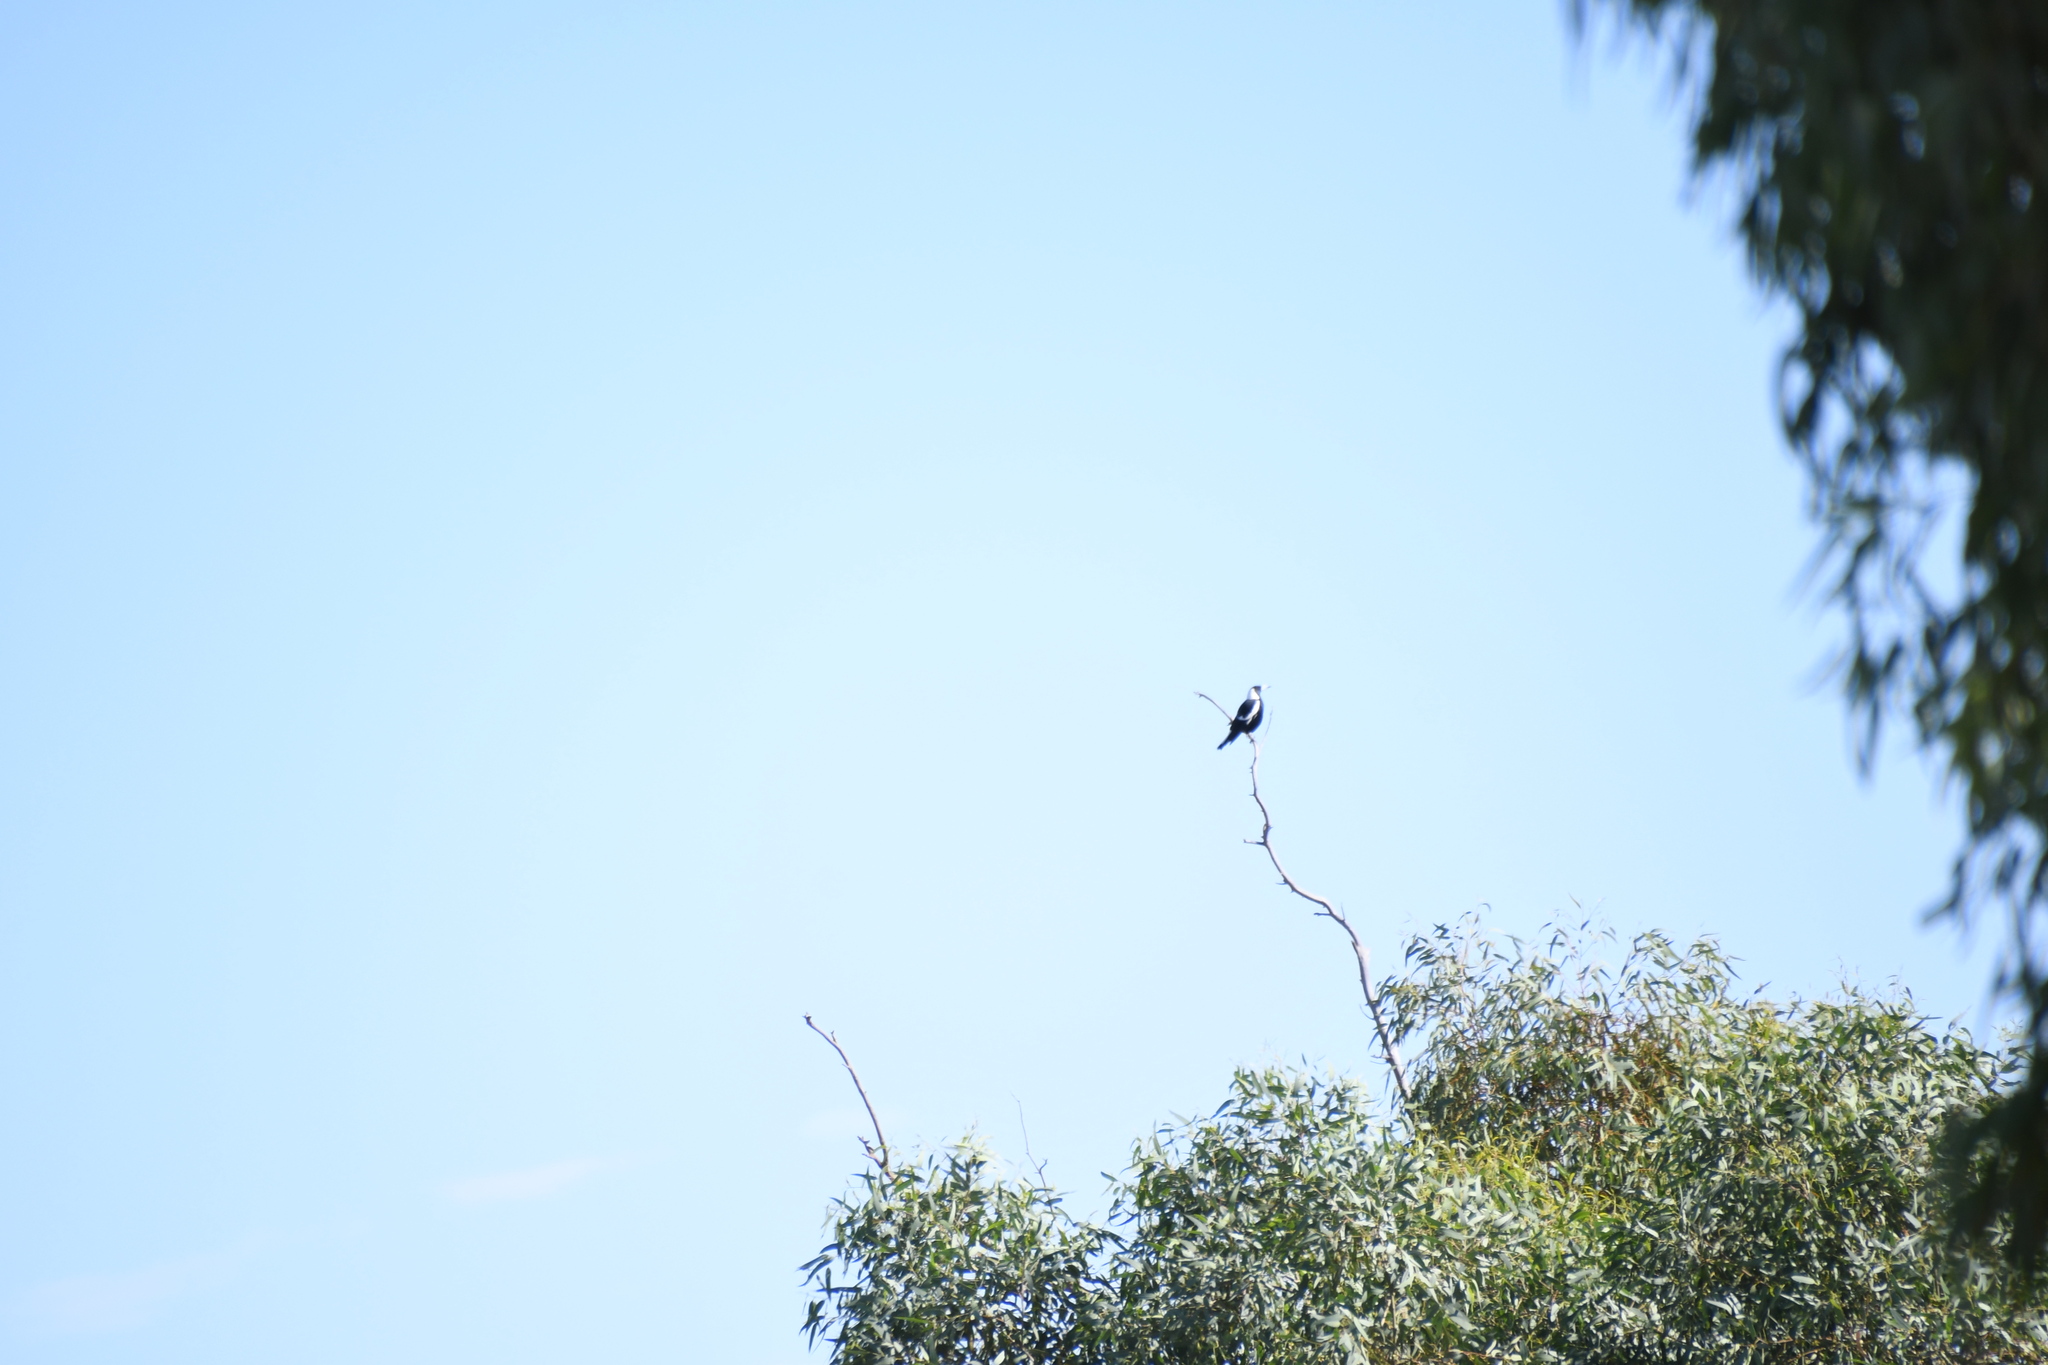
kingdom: Animalia
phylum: Chordata
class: Aves
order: Passeriformes
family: Cracticidae
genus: Gymnorhina
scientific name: Gymnorhina tibicen
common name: Australian magpie
